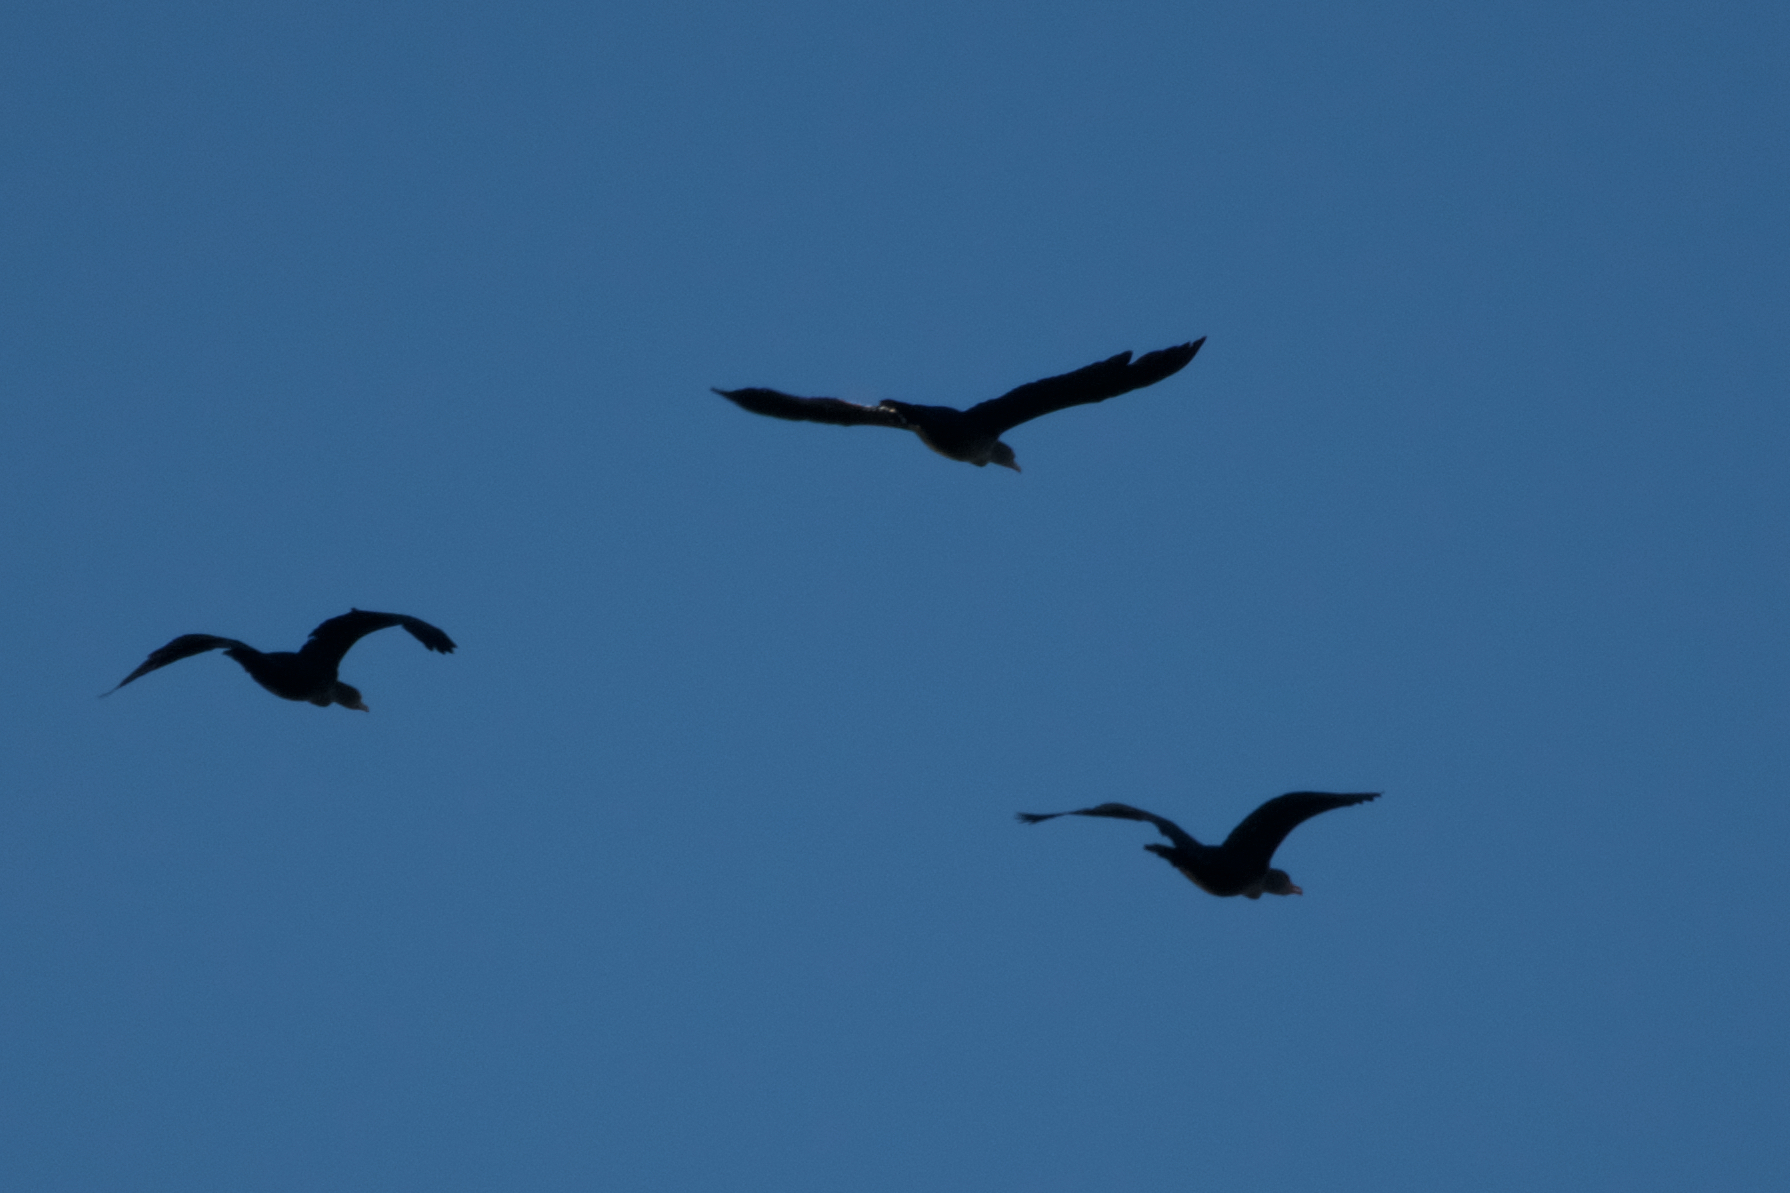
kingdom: Animalia
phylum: Chordata
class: Aves
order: Suliformes
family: Phalacrocoracidae
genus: Phalacrocorax
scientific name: Phalacrocorax auritus
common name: Double-crested cormorant
